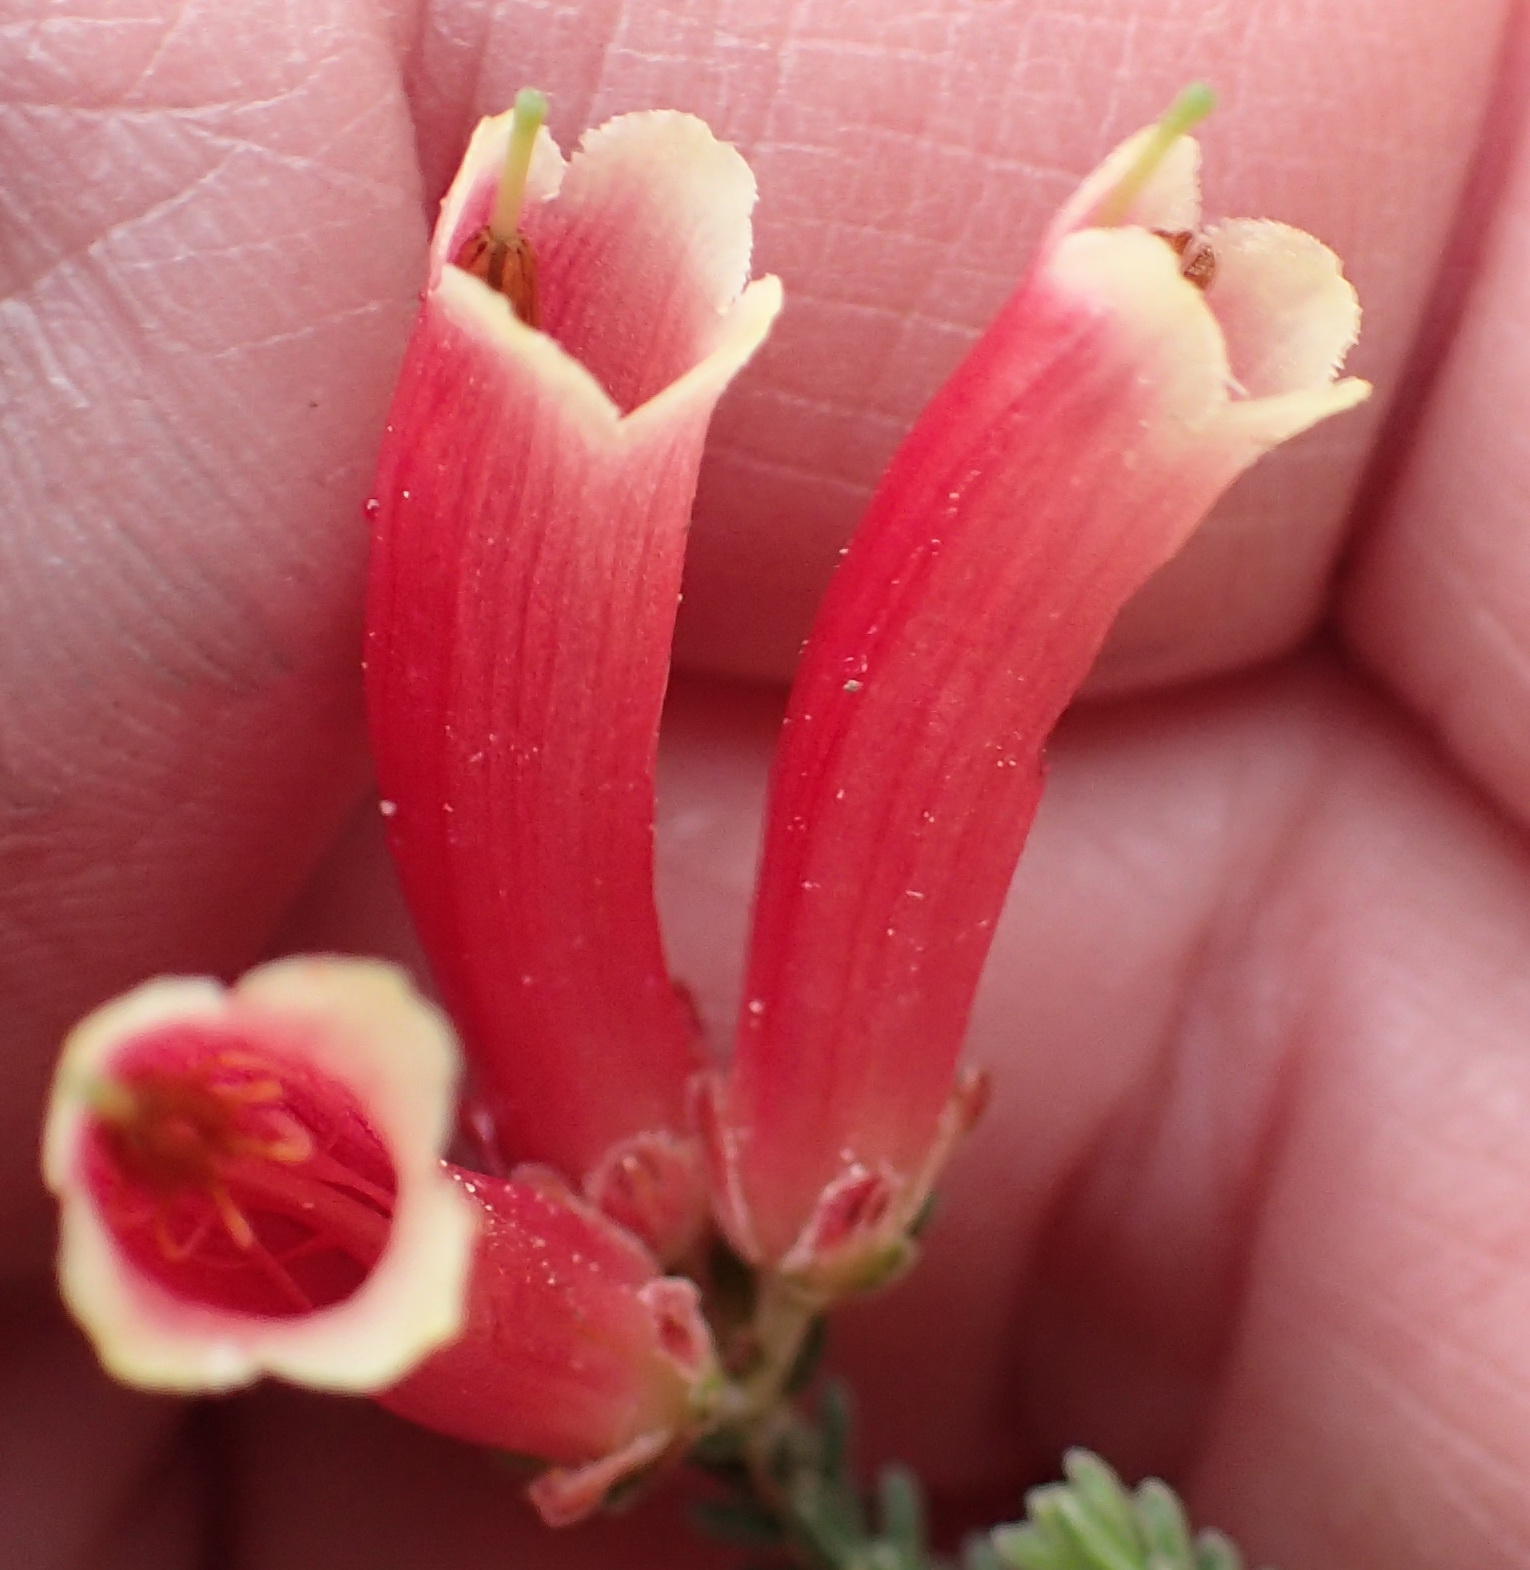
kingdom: Plantae
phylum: Tracheophyta
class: Magnoliopsida
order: Ericales
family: Ericaceae
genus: Erica
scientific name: Erica versicolor
